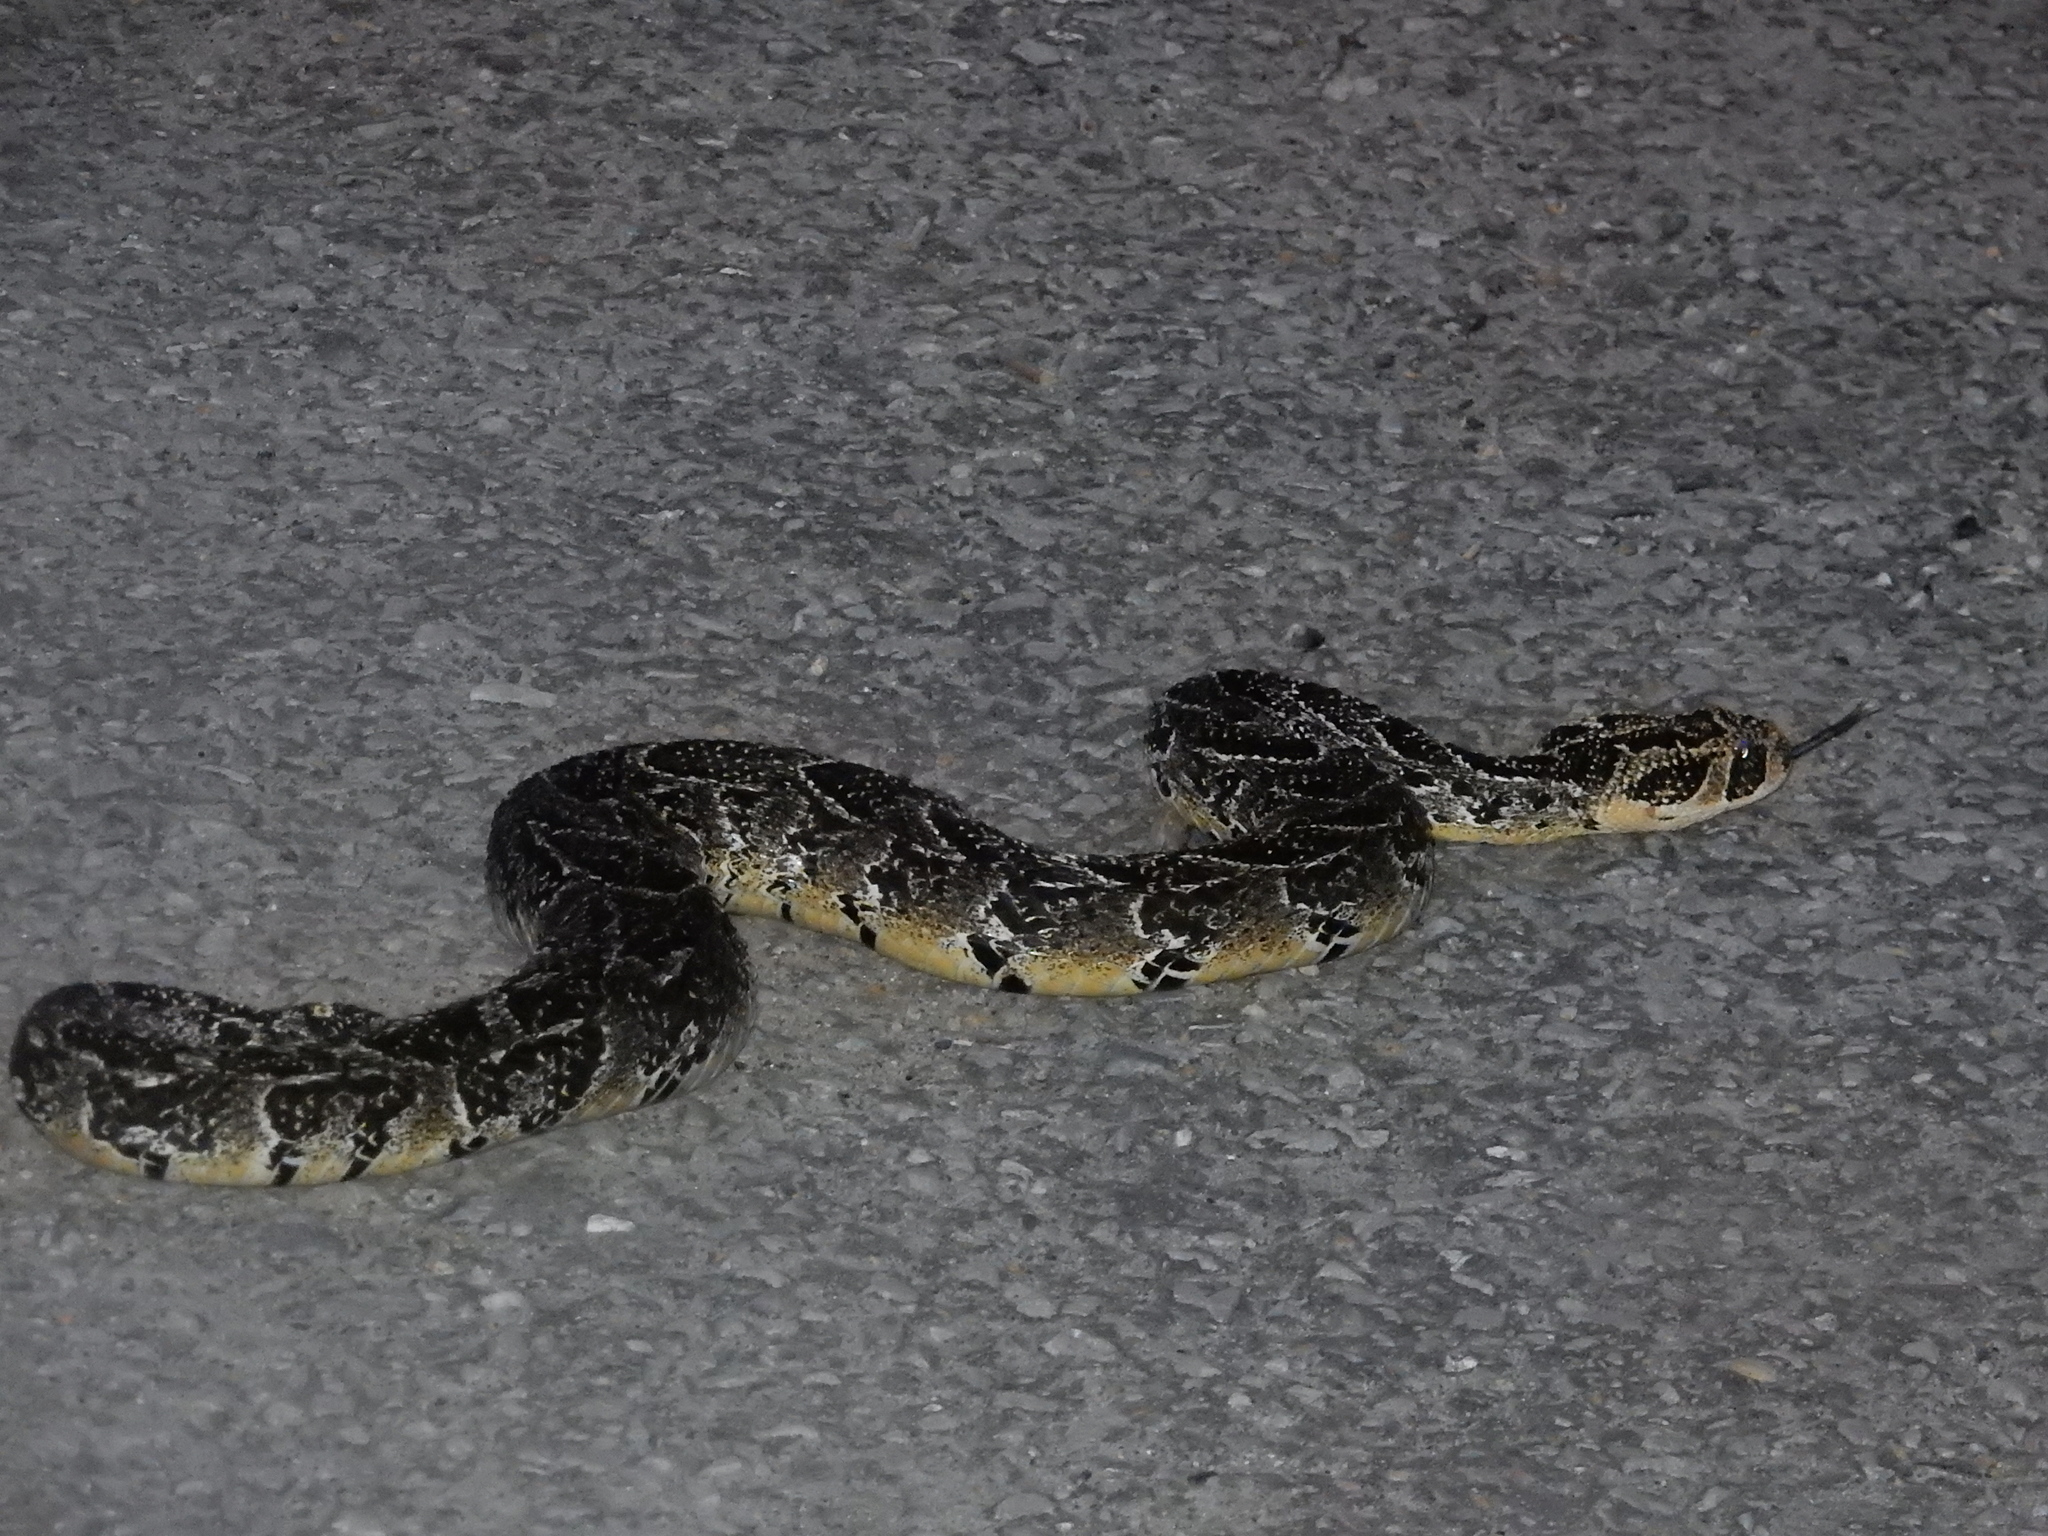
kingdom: Animalia
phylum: Chordata
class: Squamata
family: Viperidae
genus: Bitis
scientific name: Bitis arietans
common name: Puff adder
